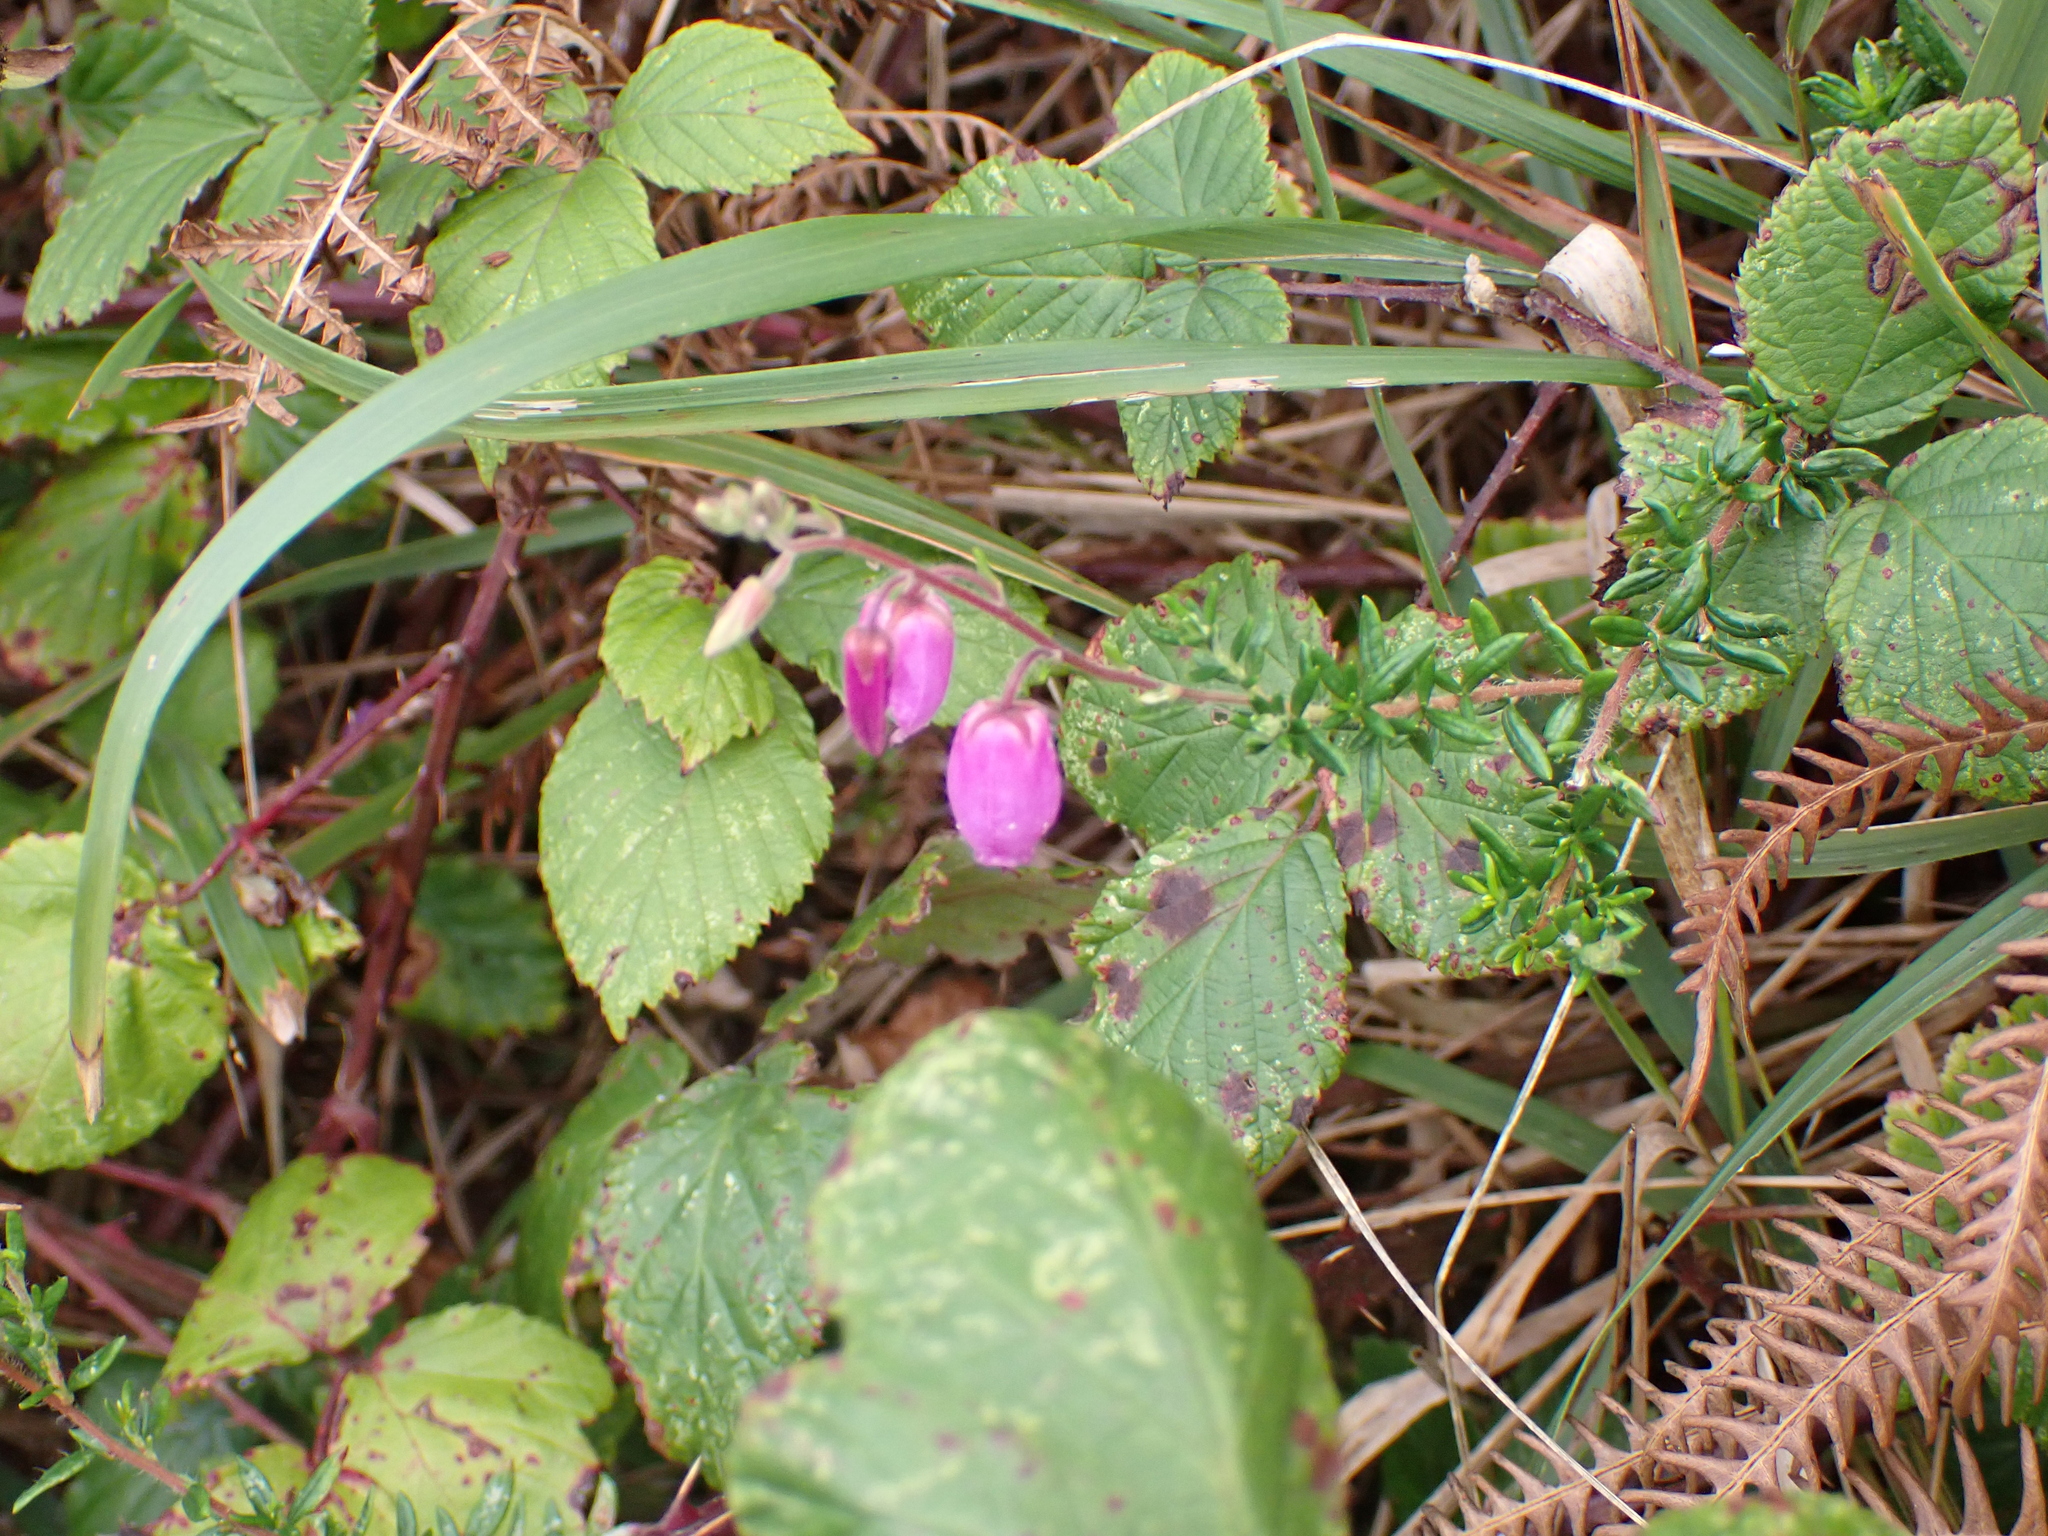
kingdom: Plantae
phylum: Tracheophyta
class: Magnoliopsida
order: Ericales
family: Ericaceae
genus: Daboecia
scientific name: Daboecia cantabrica
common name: St. dabeoc's-heath
